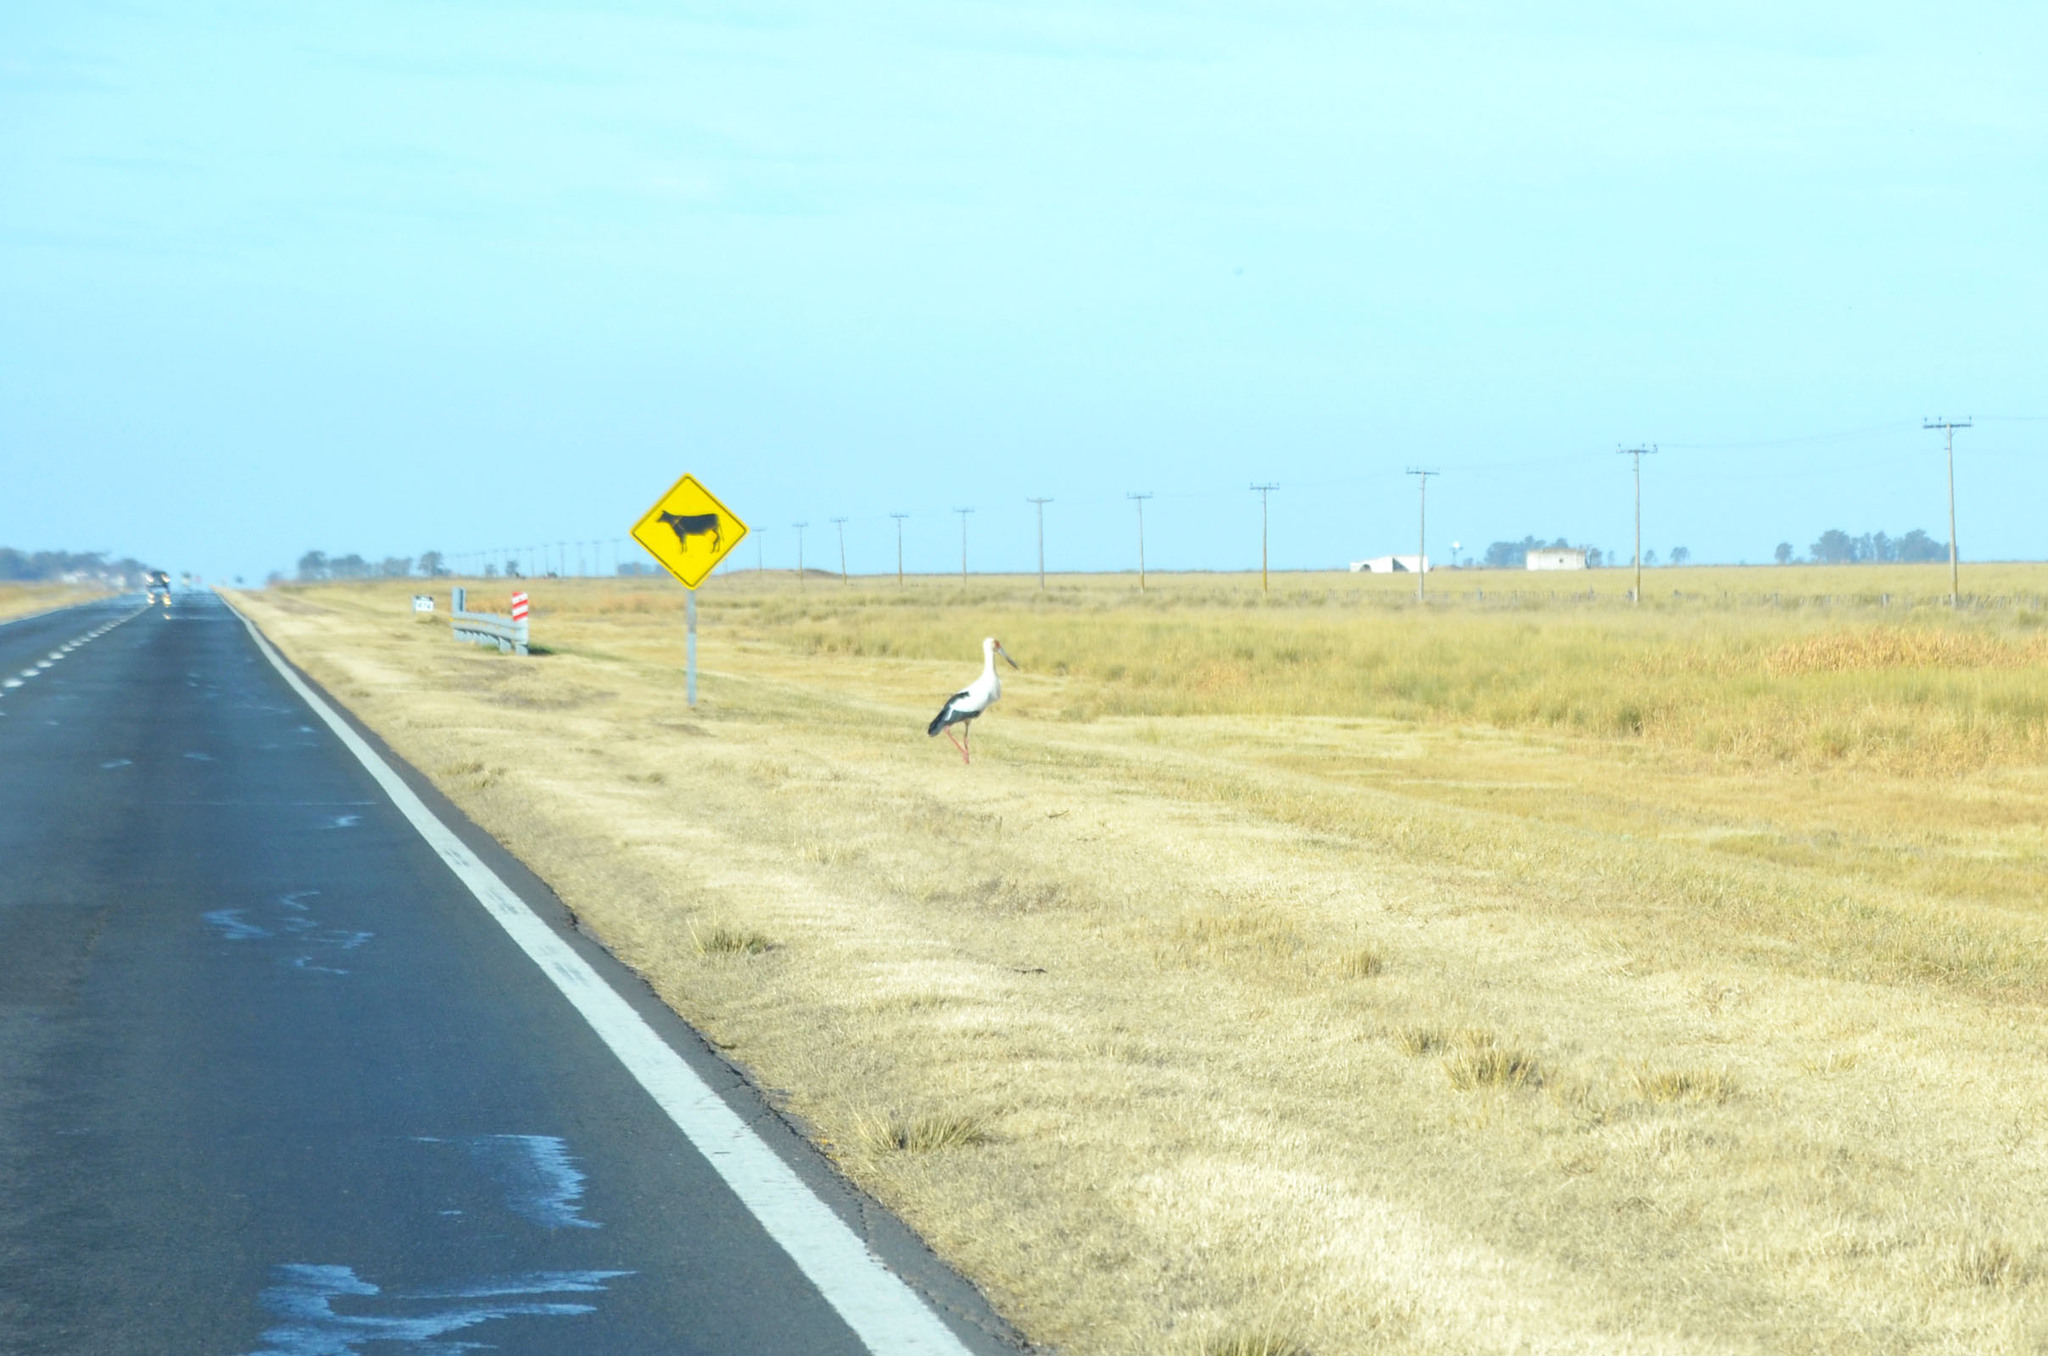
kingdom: Animalia
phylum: Chordata
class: Aves
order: Ciconiiformes
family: Ciconiidae
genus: Ciconia
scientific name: Ciconia maguari
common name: Maguari stork
